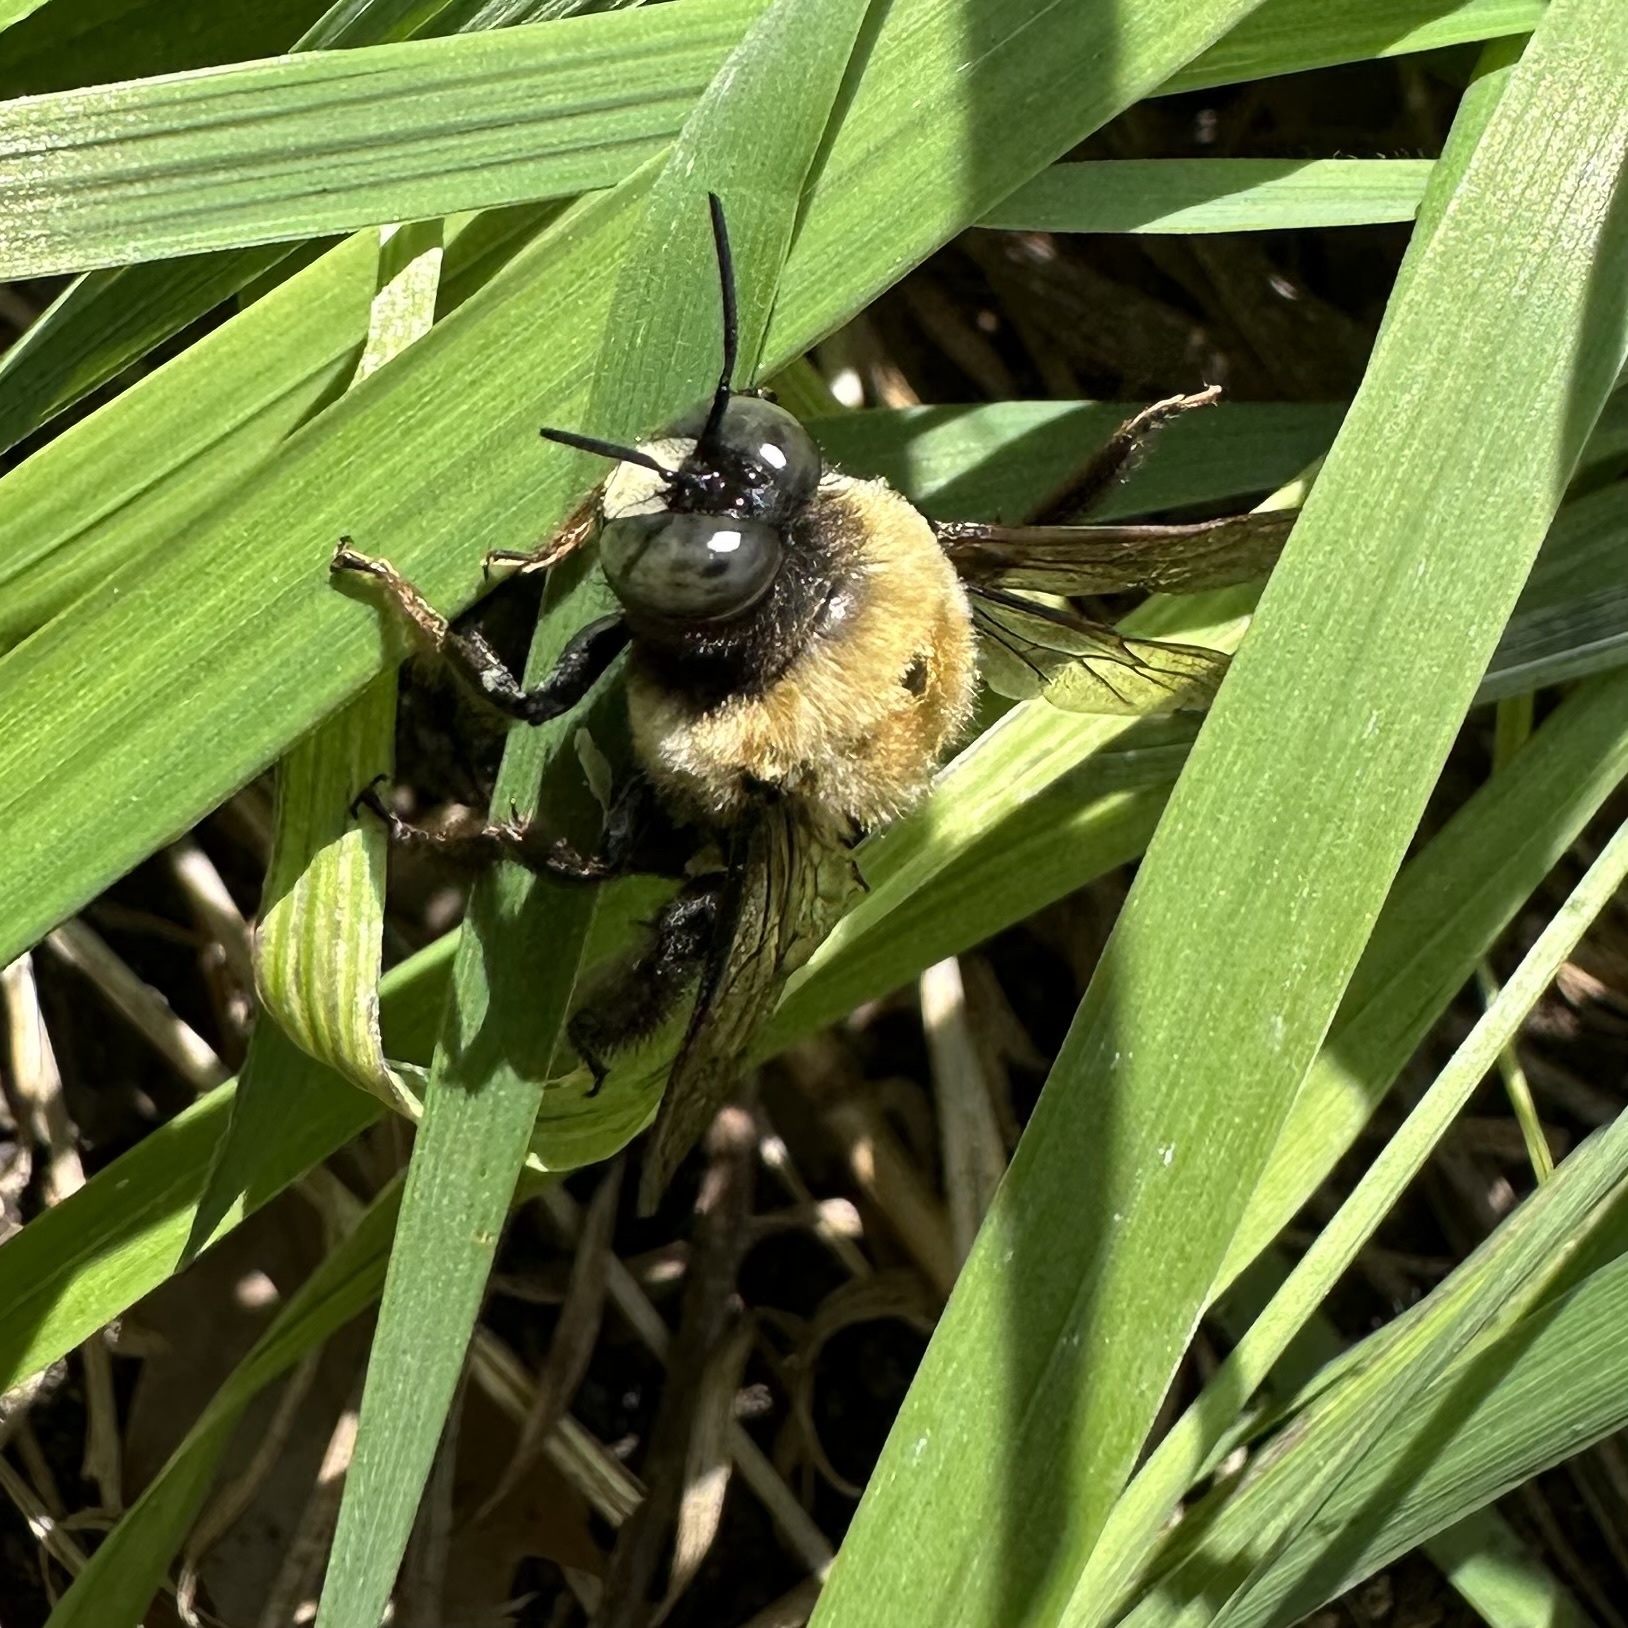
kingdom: Animalia
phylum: Arthropoda
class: Insecta
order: Hymenoptera
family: Apidae
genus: Xylocopa
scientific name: Xylocopa virginica
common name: Carpenter bee
